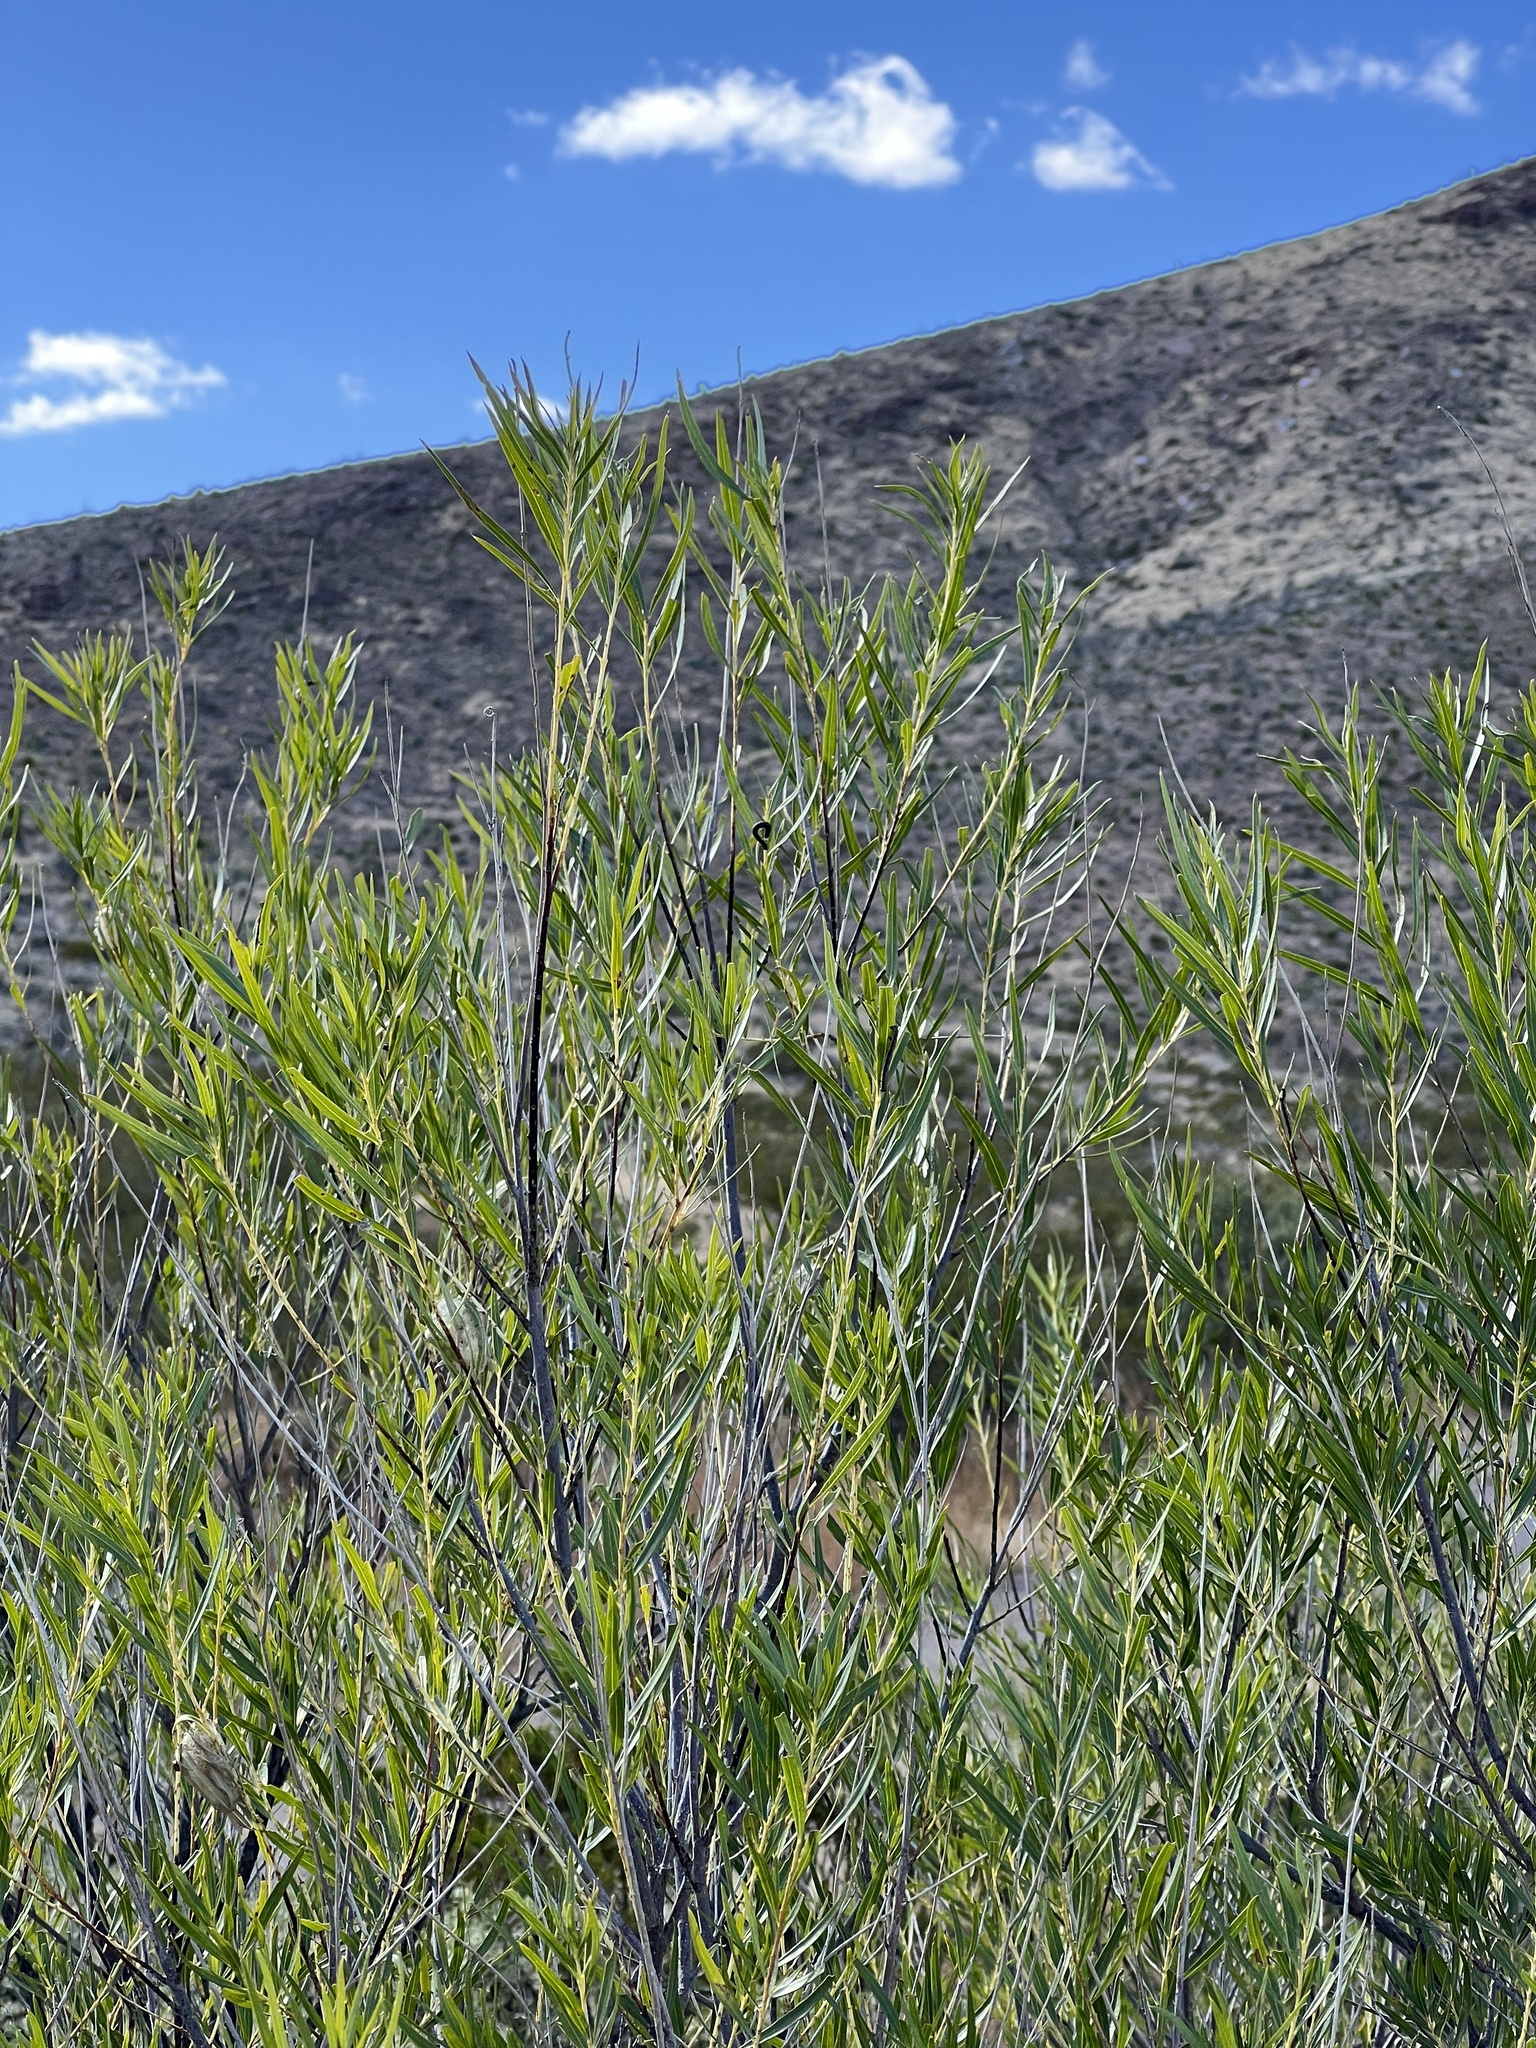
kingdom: Plantae
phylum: Tracheophyta
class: Magnoliopsida
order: Lamiales
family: Bignoniaceae
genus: Chilopsis
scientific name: Chilopsis linearis
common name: Desert-willow
